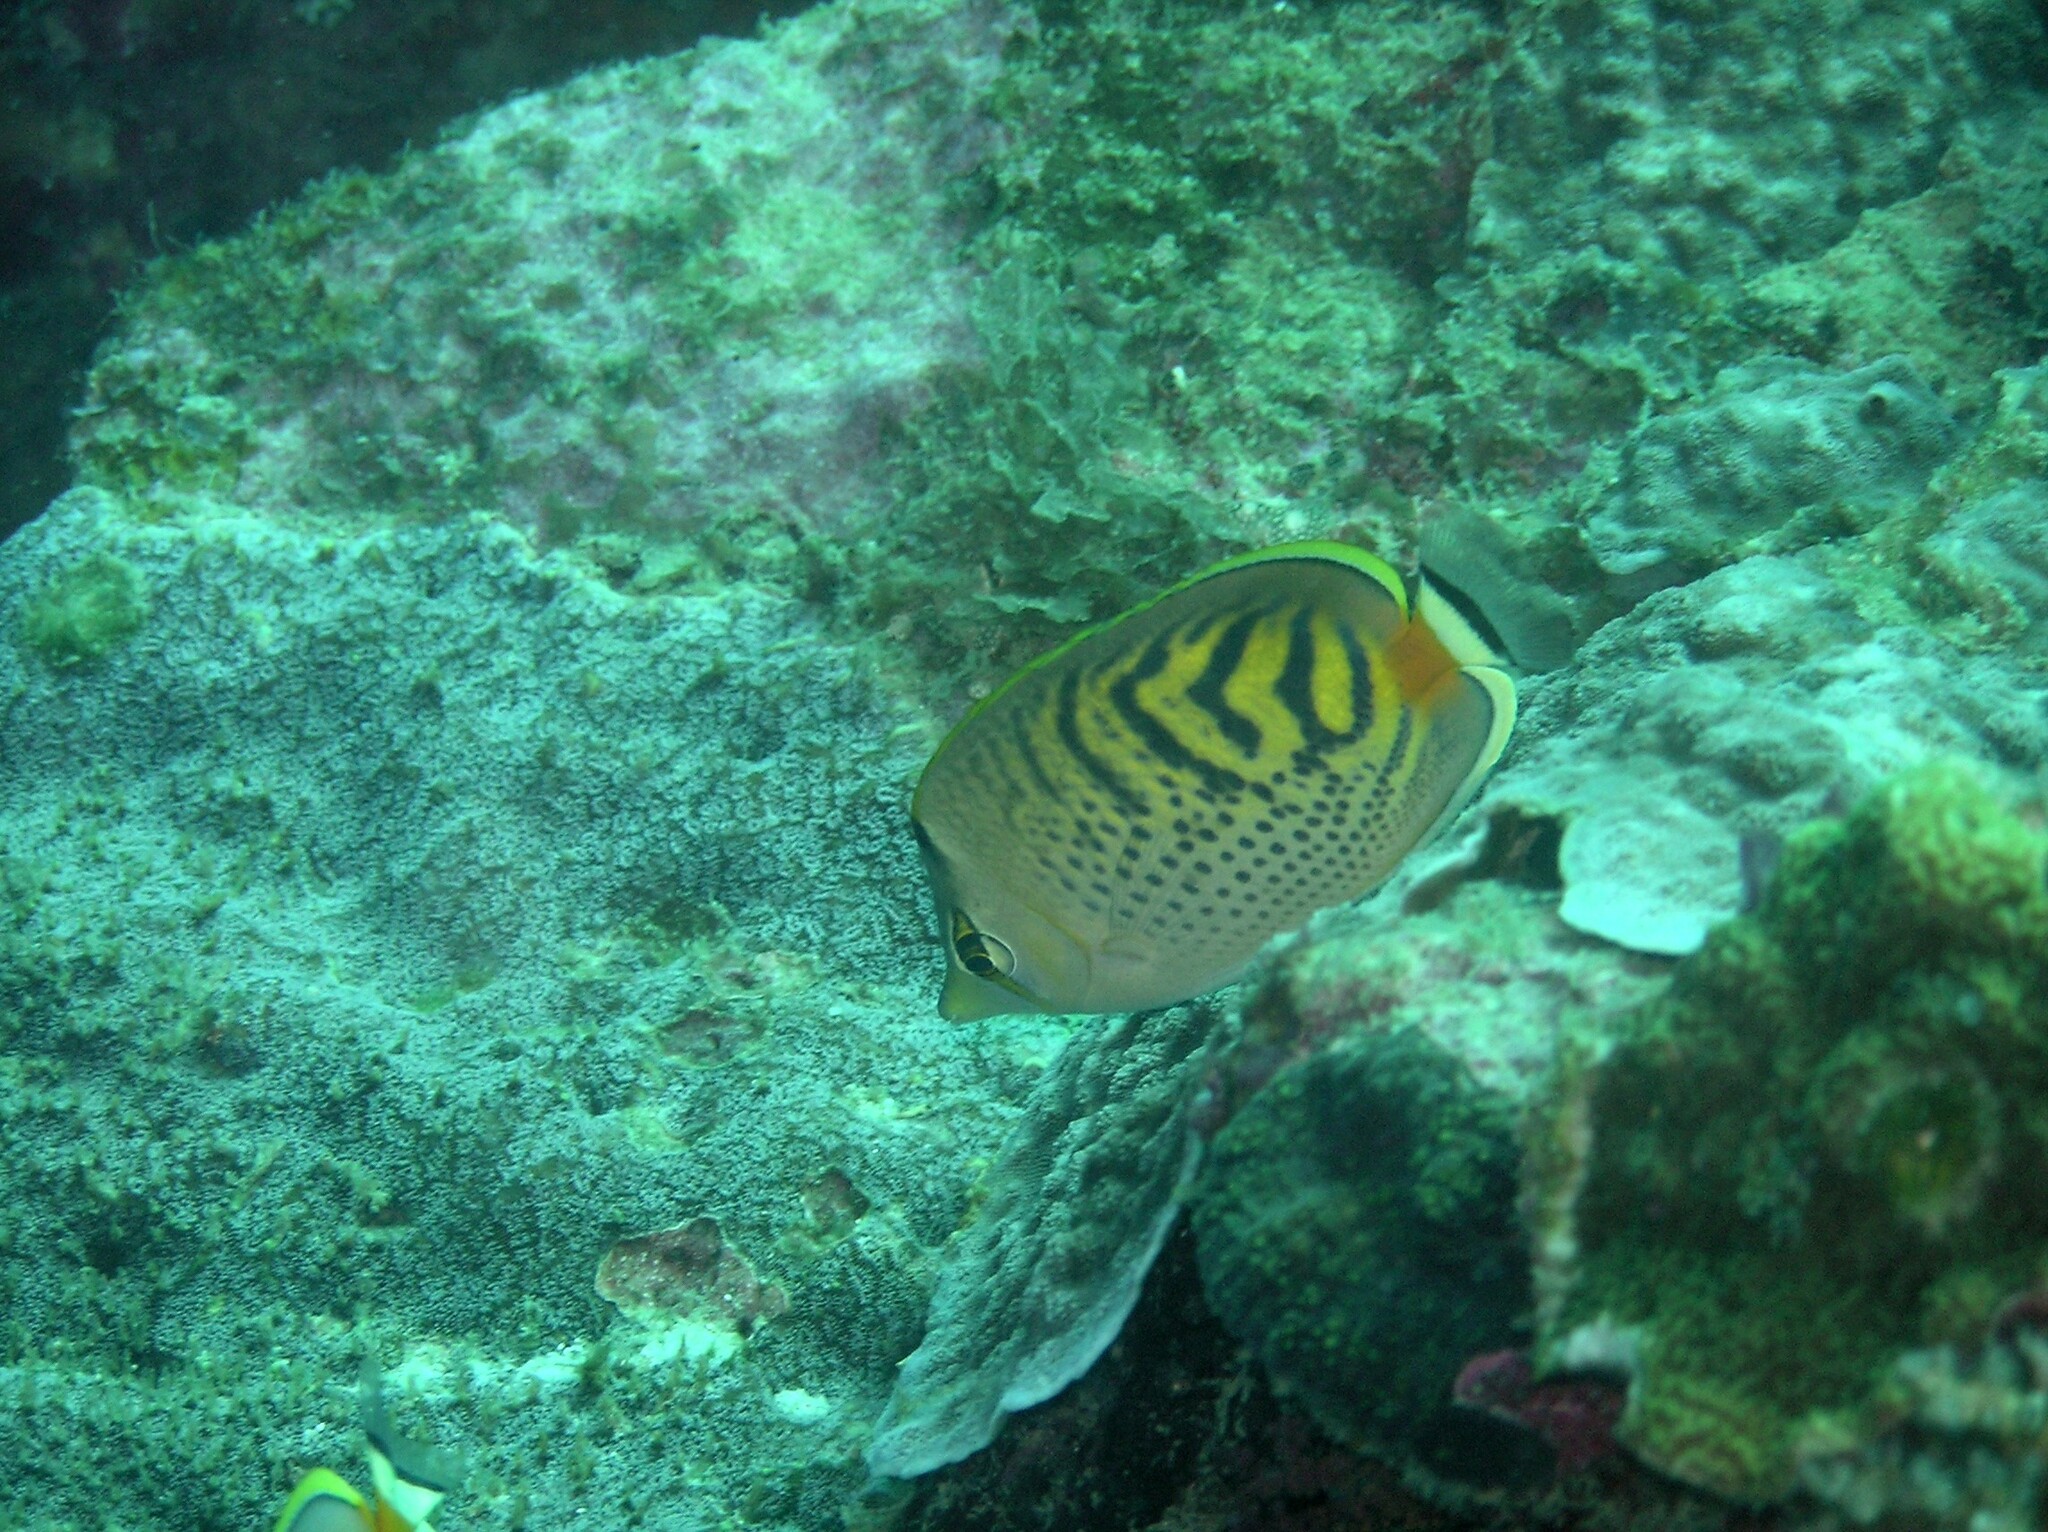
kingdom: Animalia
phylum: Chordata
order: Perciformes
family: Chaetodontidae
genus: Chaetodon
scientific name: Chaetodon
